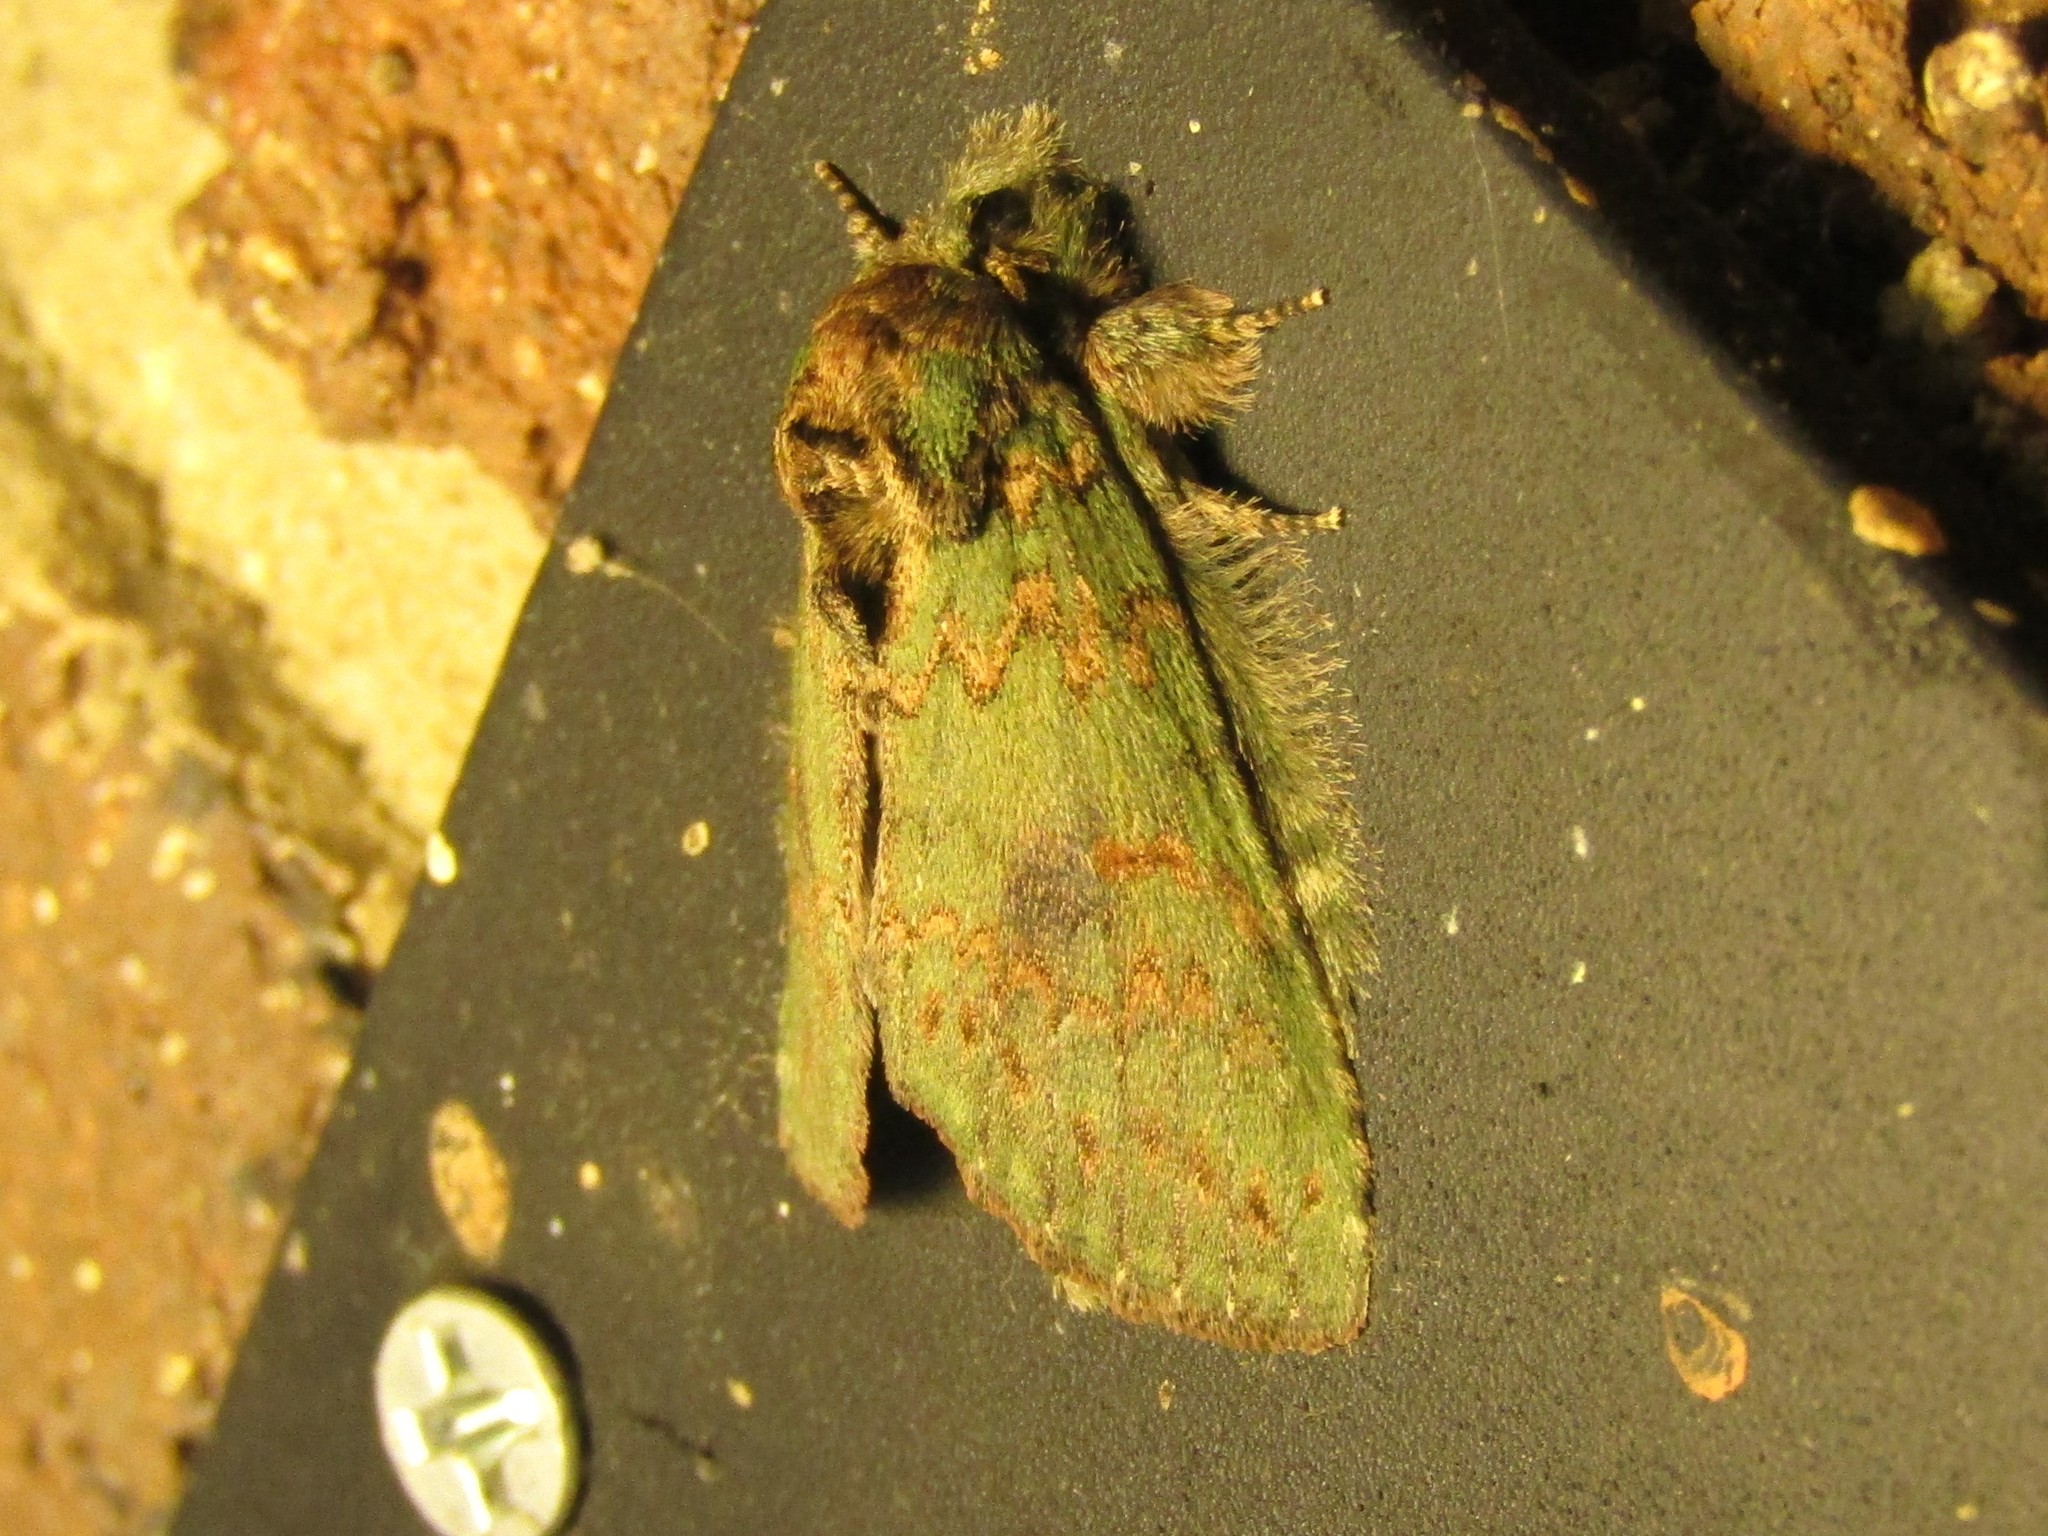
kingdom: Animalia
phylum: Arthropoda
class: Insecta
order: Lepidoptera
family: Notodontidae
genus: Disphragis
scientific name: Disphragis Cecrita biundata
